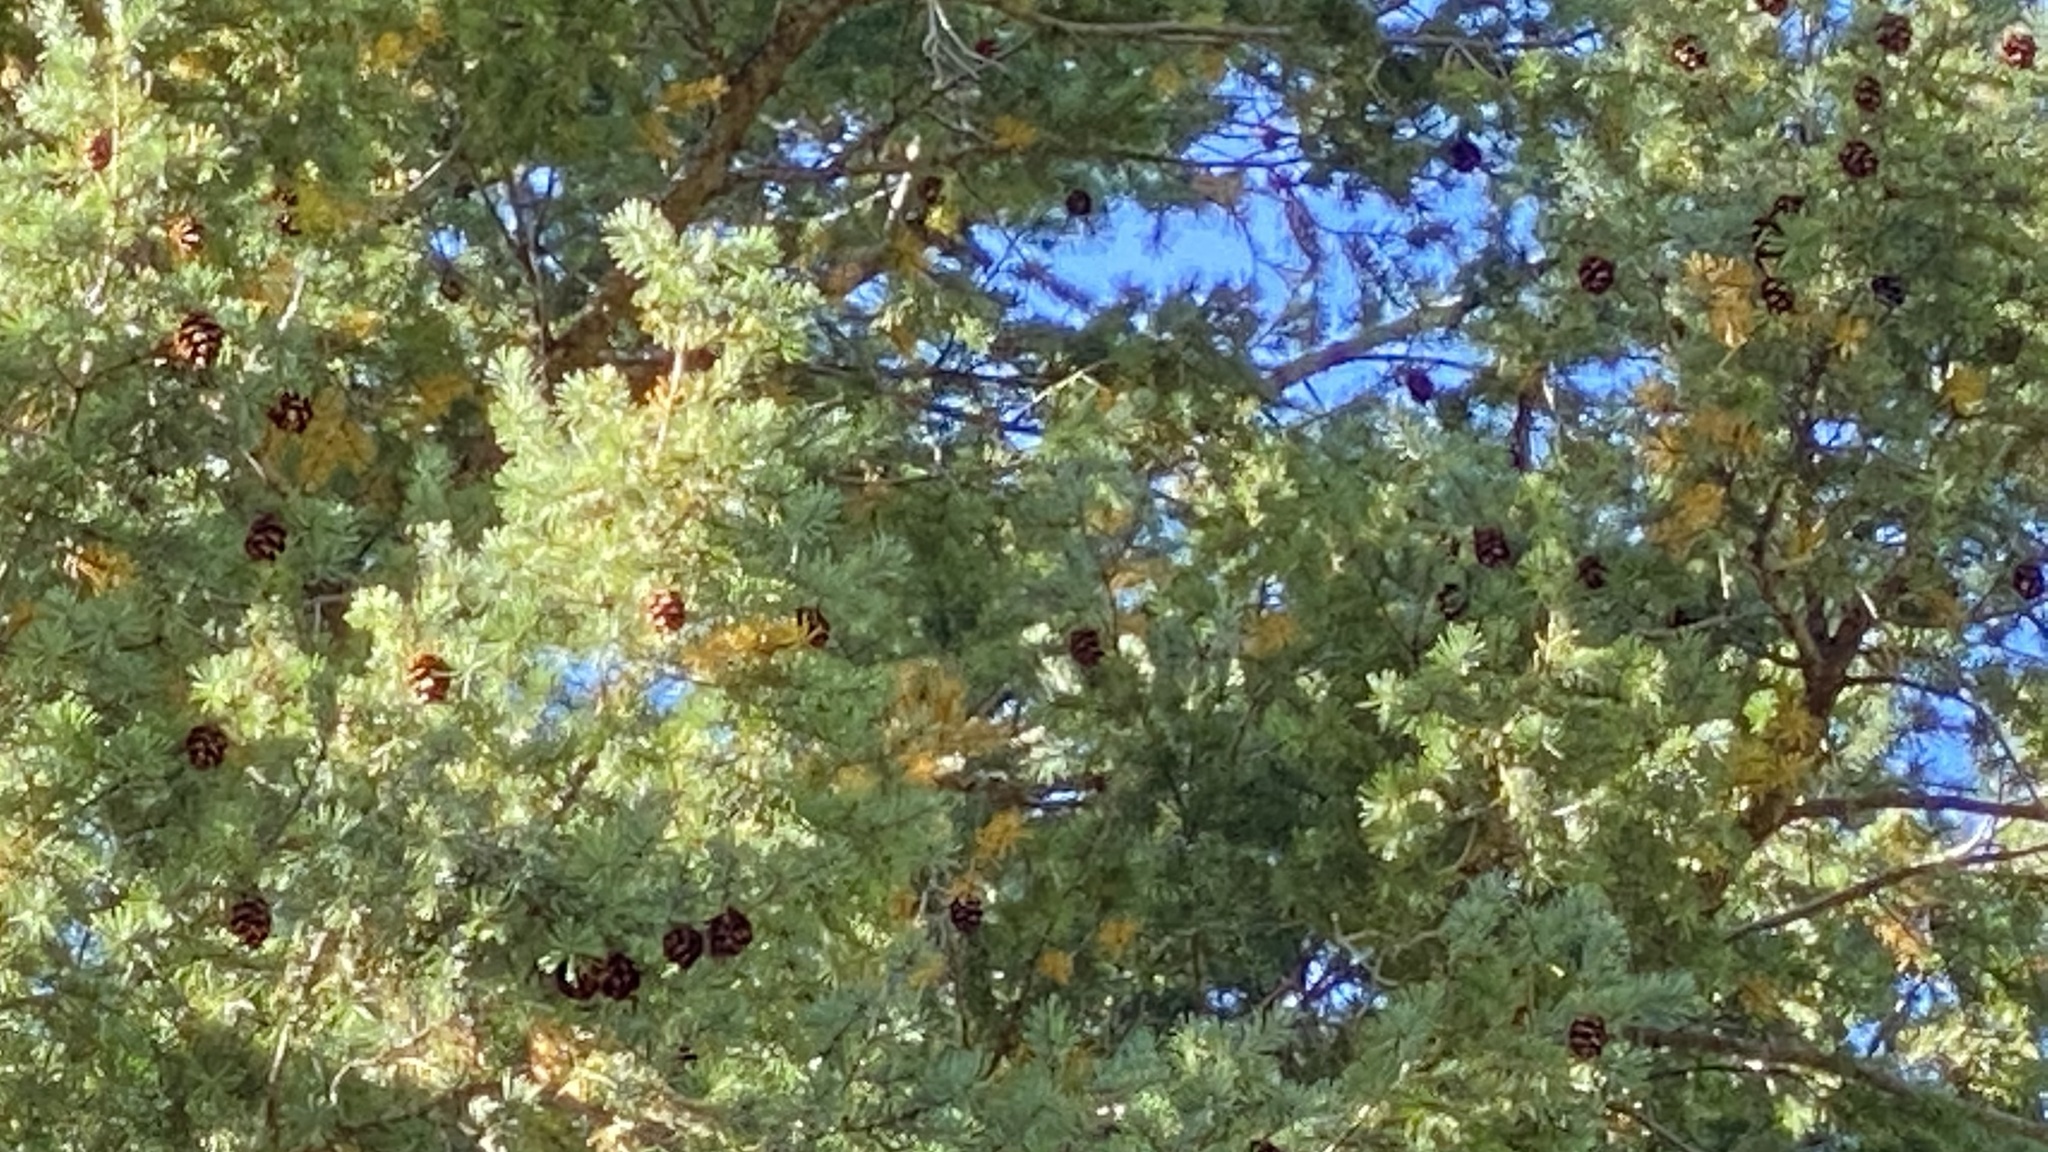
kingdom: Plantae
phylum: Tracheophyta
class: Pinopsida
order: Pinales
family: Pinaceae
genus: Pseudotsuga
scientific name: Pseudotsuga menziesii
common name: Douglas fir
